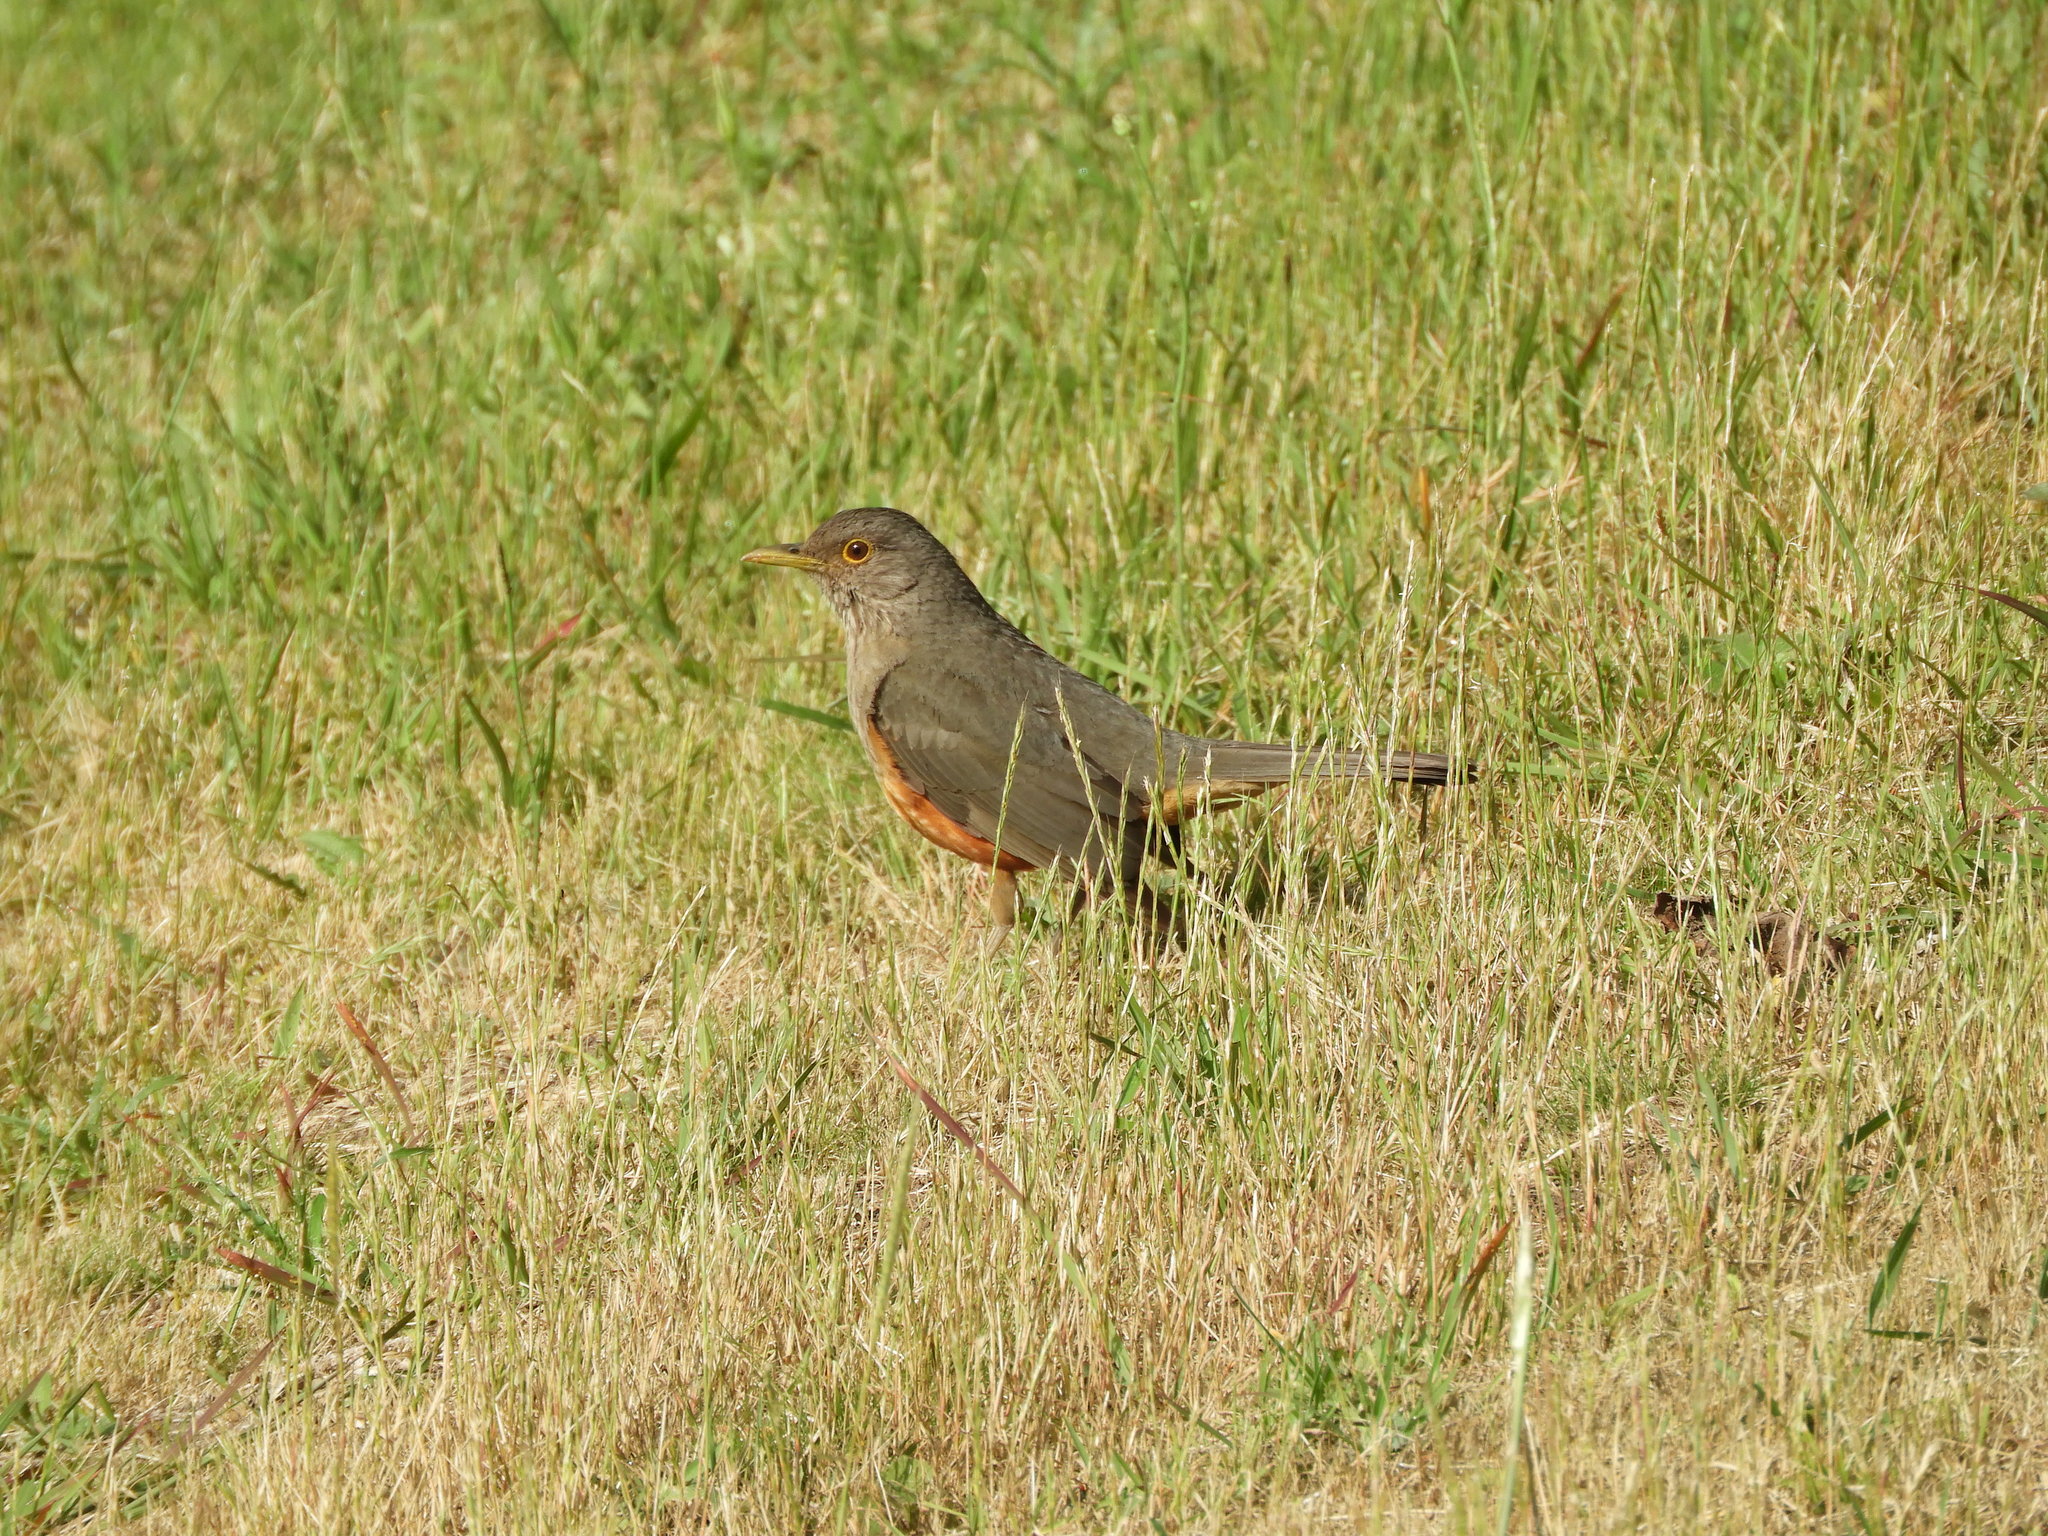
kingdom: Animalia
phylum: Chordata
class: Aves
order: Passeriformes
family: Turdidae
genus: Turdus
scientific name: Turdus rufiventris
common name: Rufous-bellied thrush
